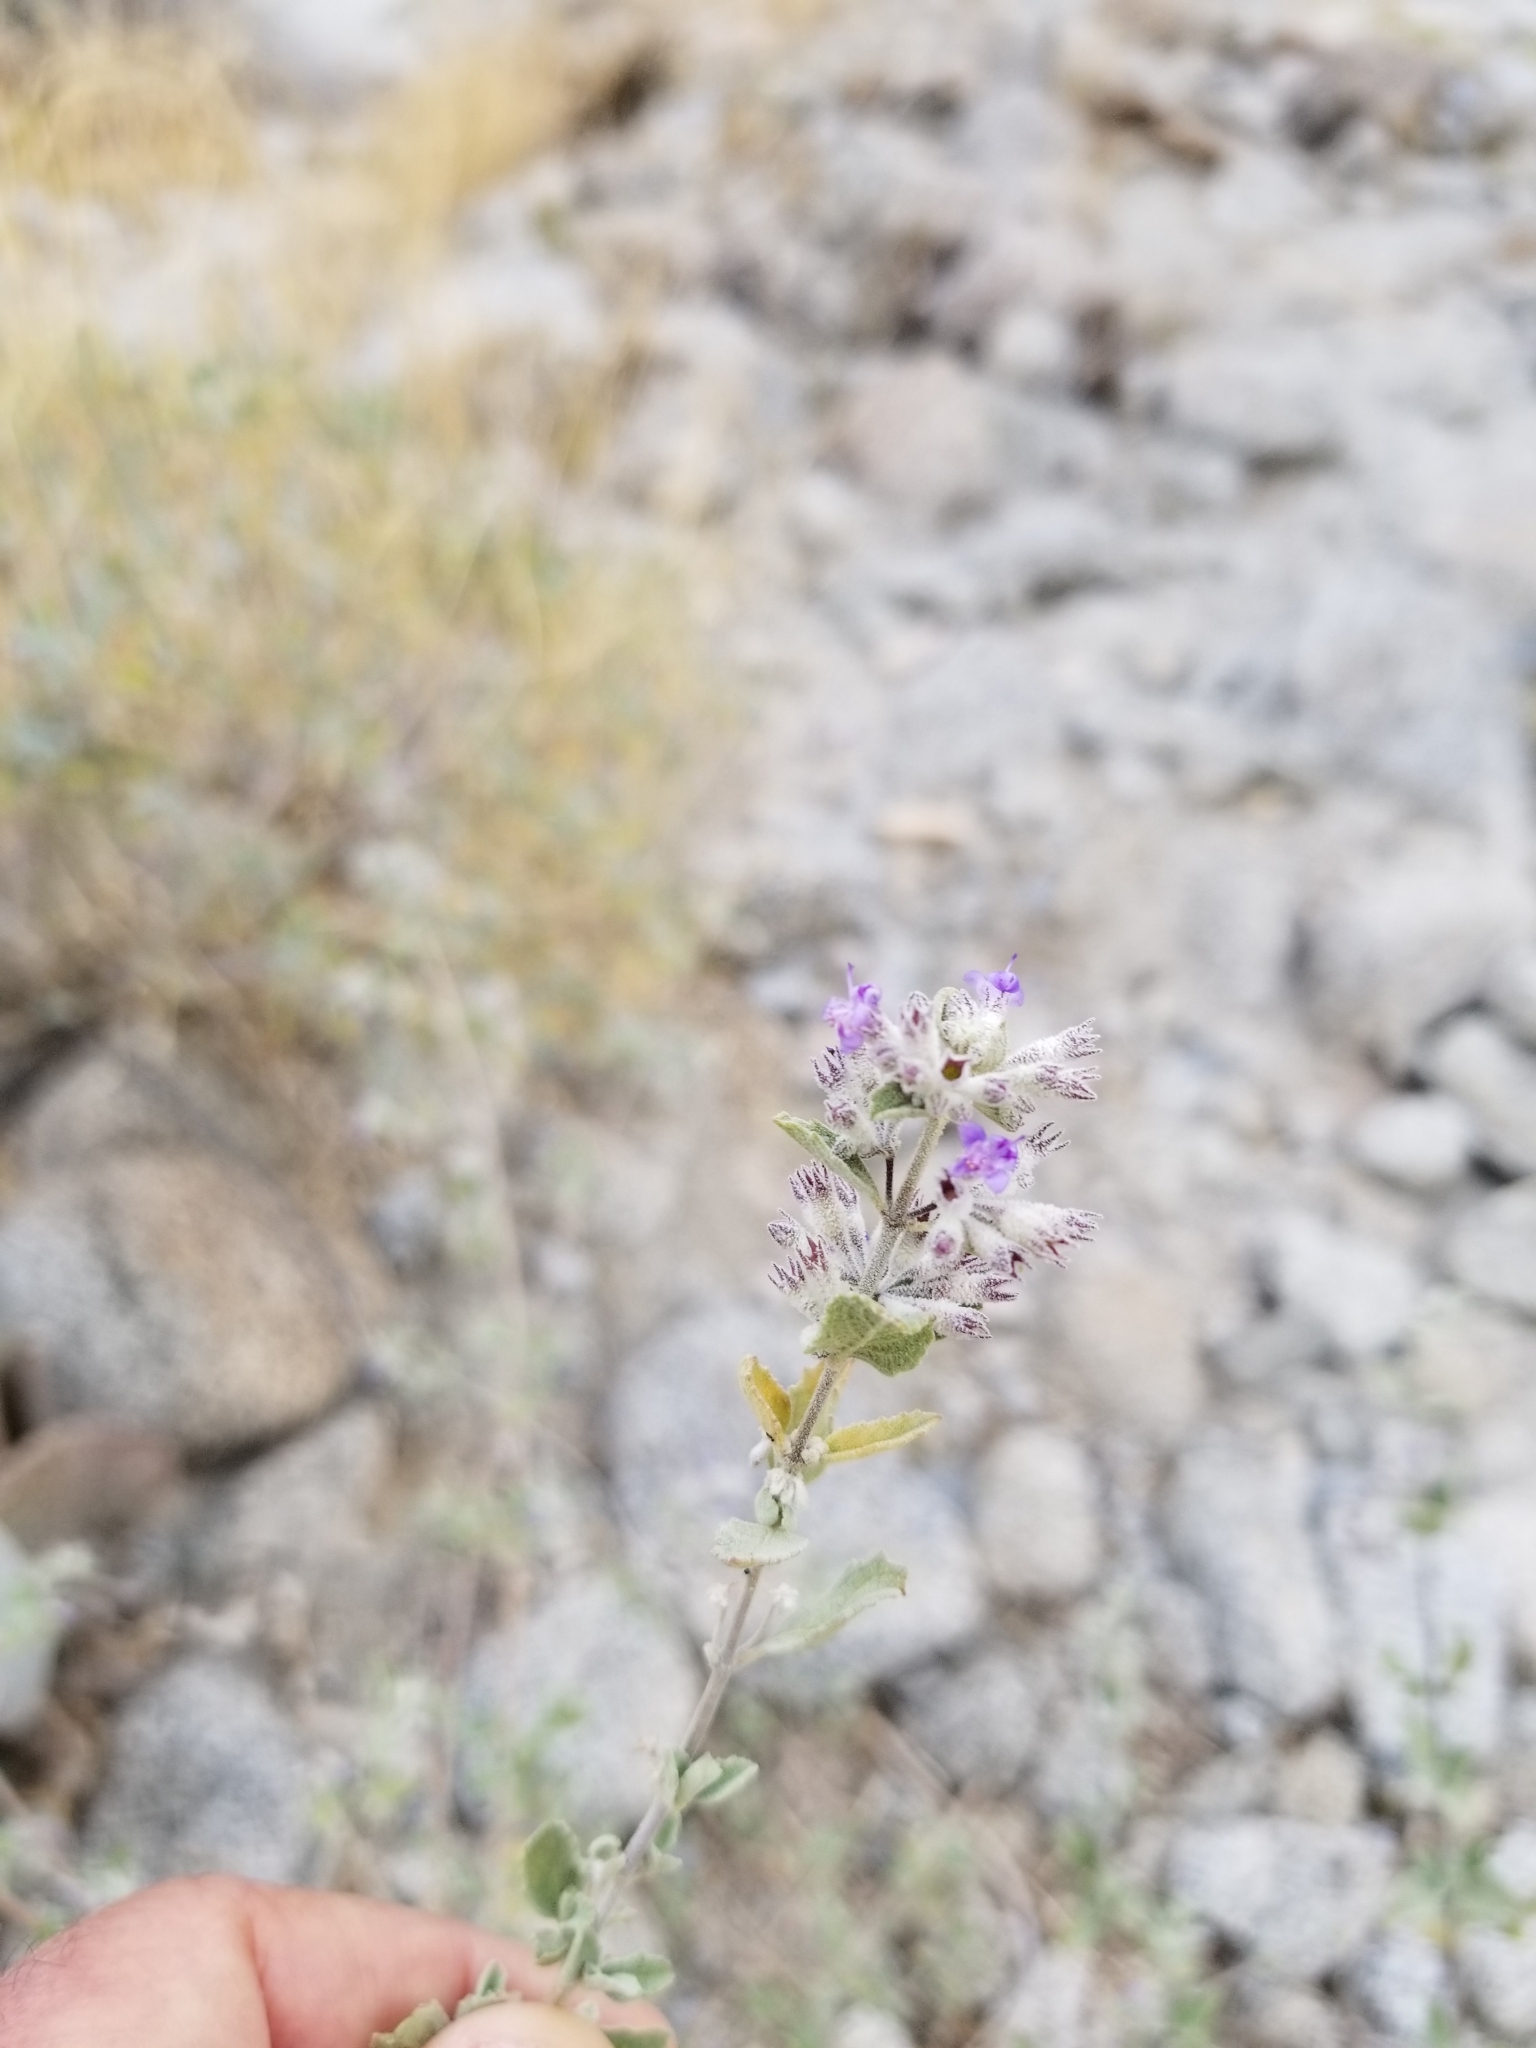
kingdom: Plantae
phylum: Tracheophyta
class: Magnoliopsida
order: Lamiales
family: Lamiaceae
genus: Condea
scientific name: Condea emoryi
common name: Chia
